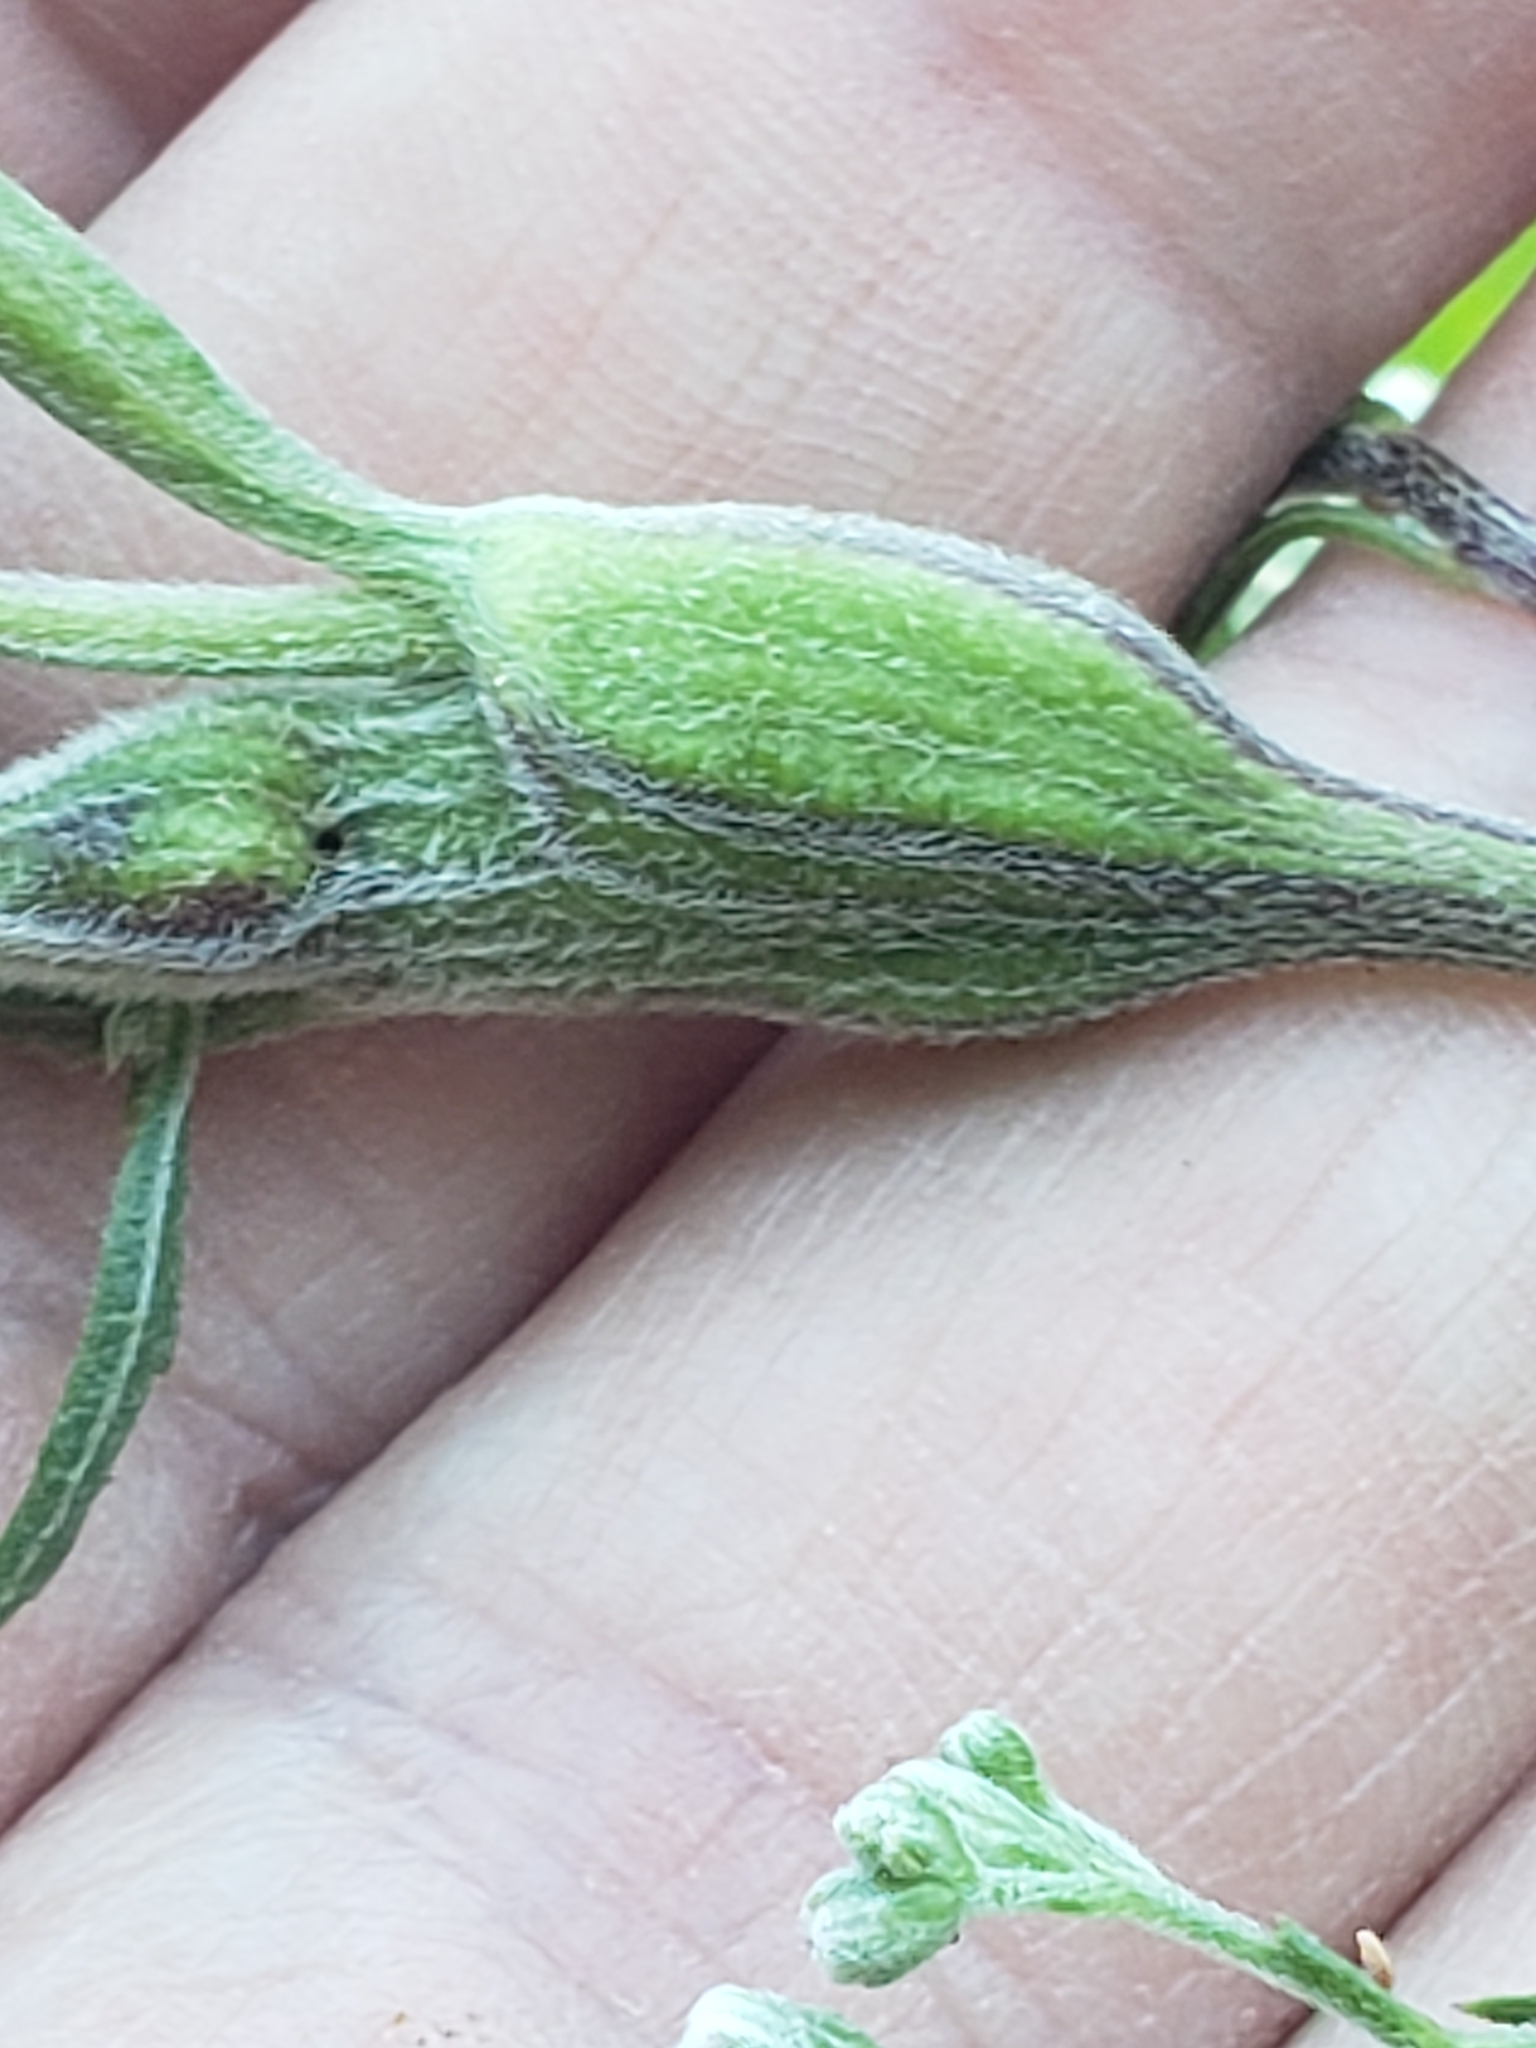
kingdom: Animalia
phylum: Arthropoda
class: Insecta
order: Diptera
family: Cecidomyiidae
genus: Neolasioptera
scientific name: Neolasioptera perfoliata
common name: Boneset stem midge
